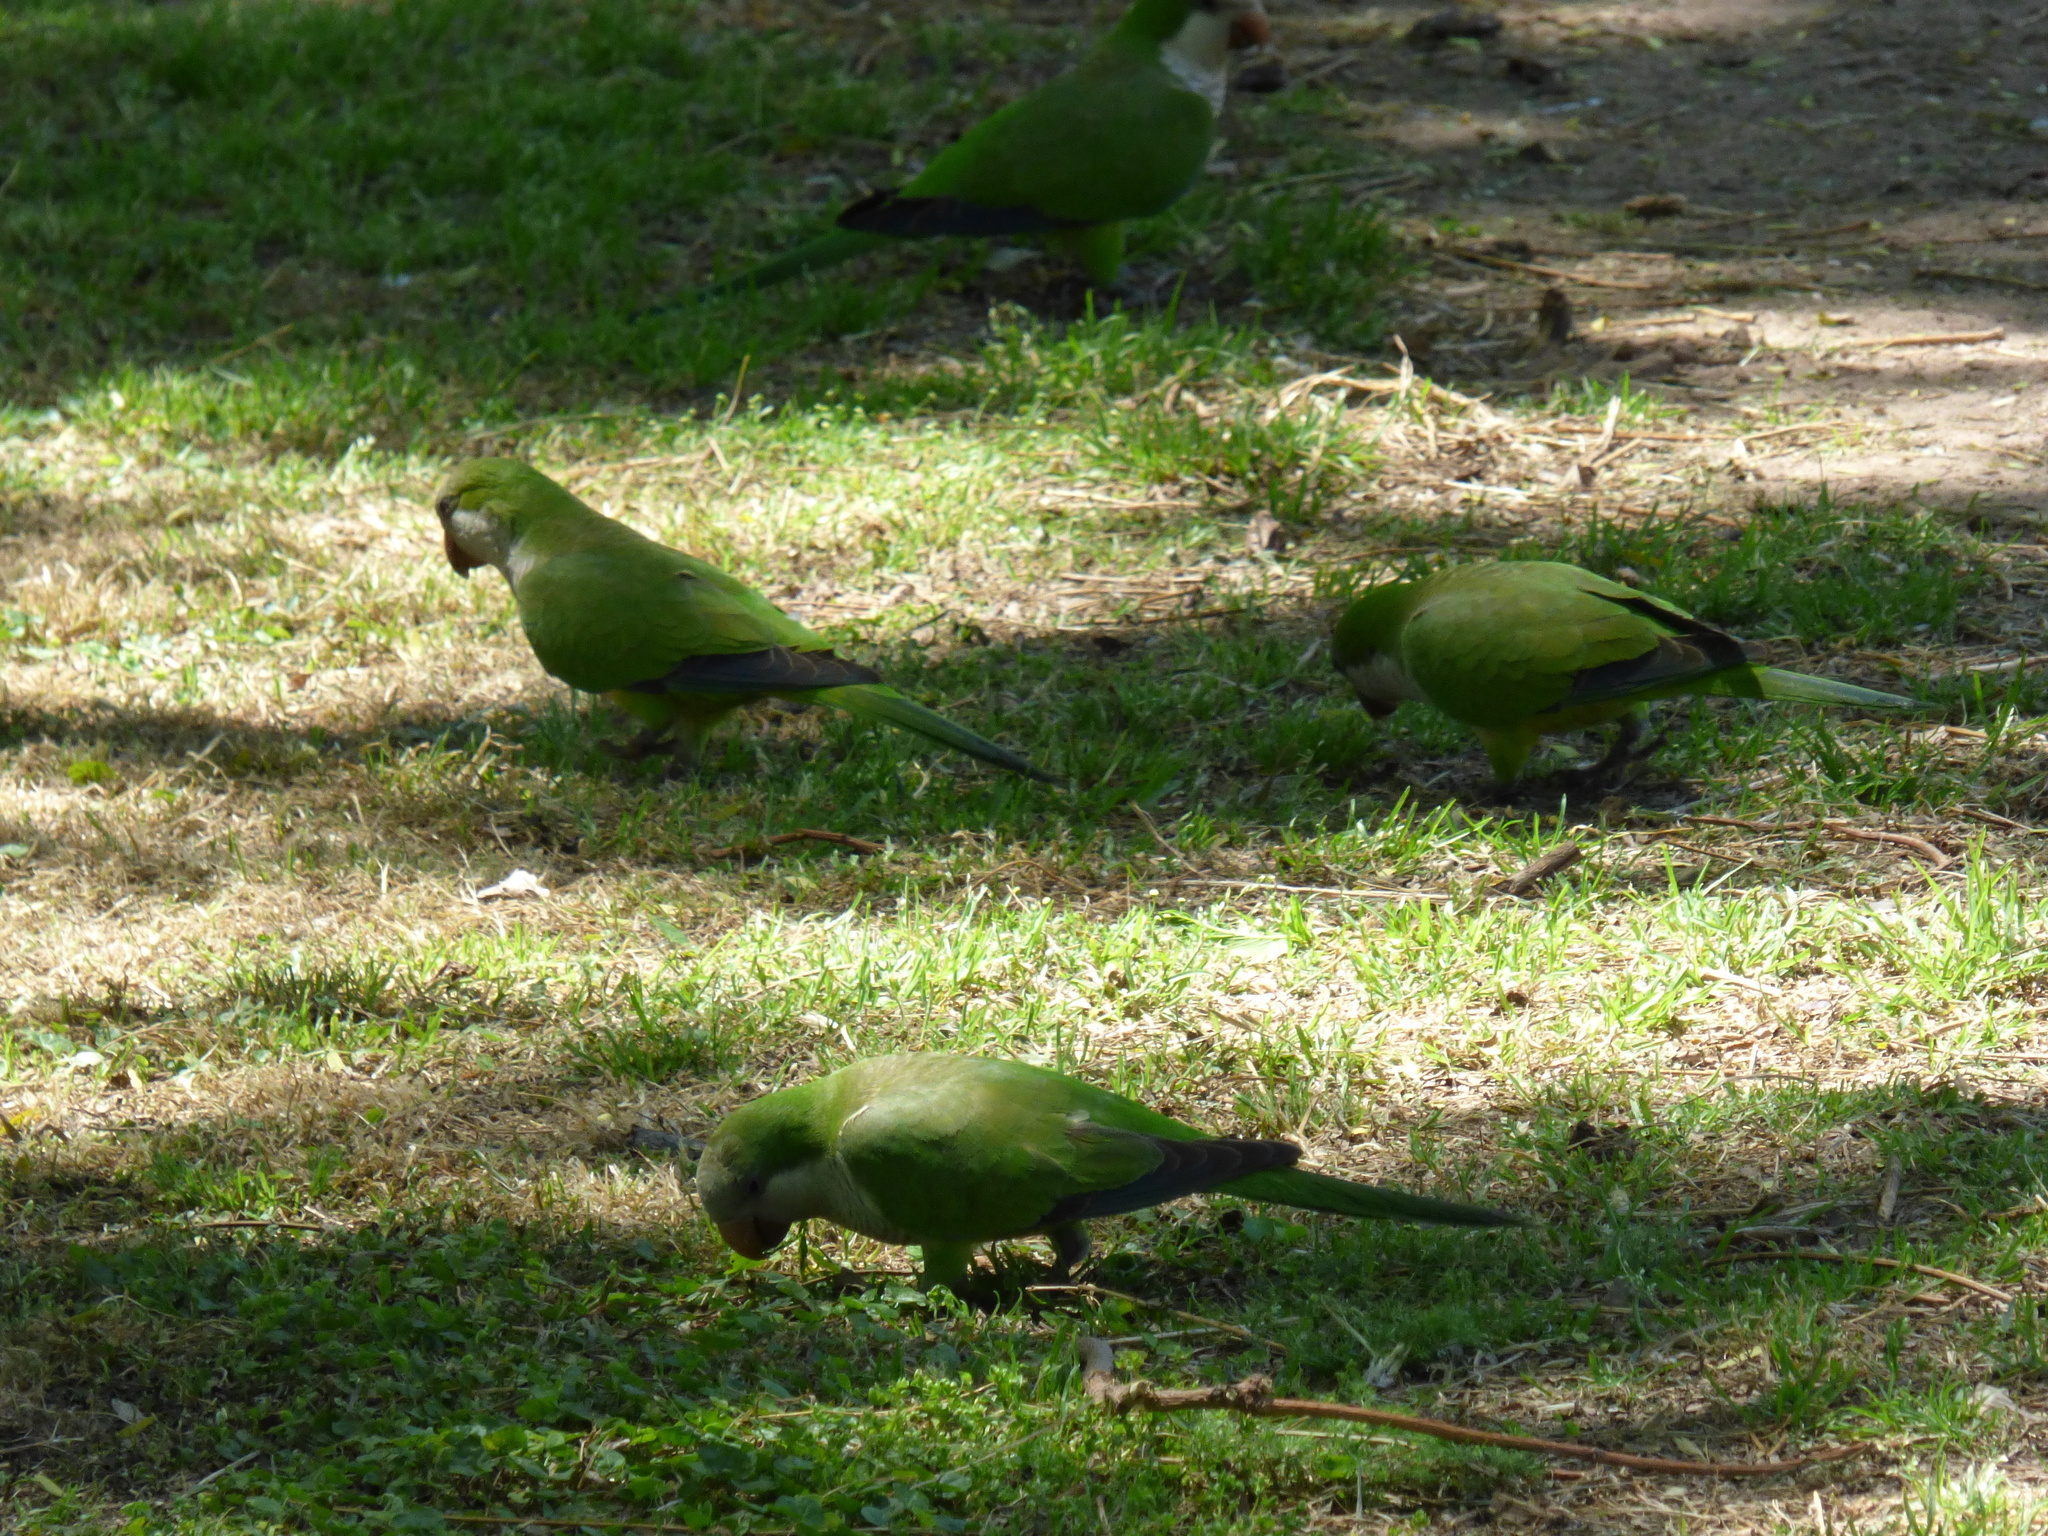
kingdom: Animalia
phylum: Chordata
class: Aves
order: Psittaciformes
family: Psittacidae
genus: Myiopsitta
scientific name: Myiopsitta monachus
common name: Monk parakeet
